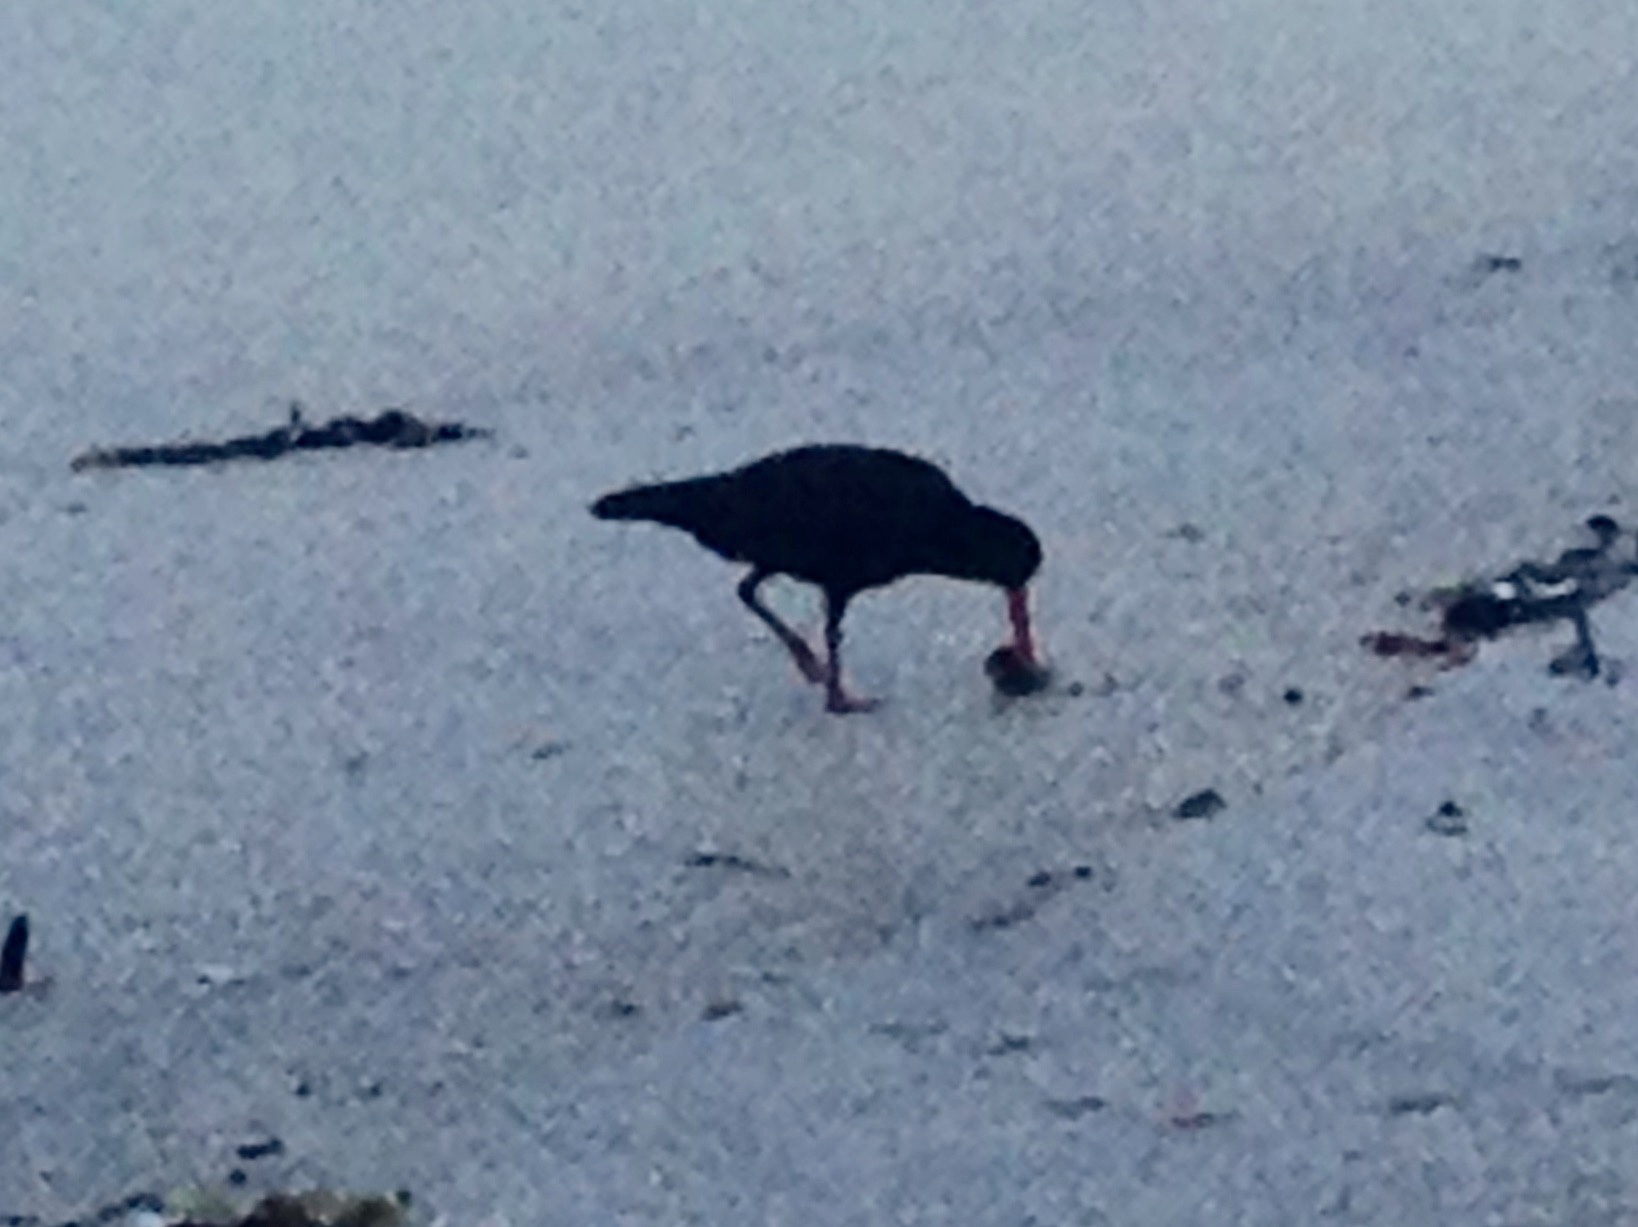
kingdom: Animalia
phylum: Chordata
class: Aves
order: Charadriiformes
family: Haematopodidae
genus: Haematopus
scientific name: Haematopus unicolor
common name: Variable oystercatcher
